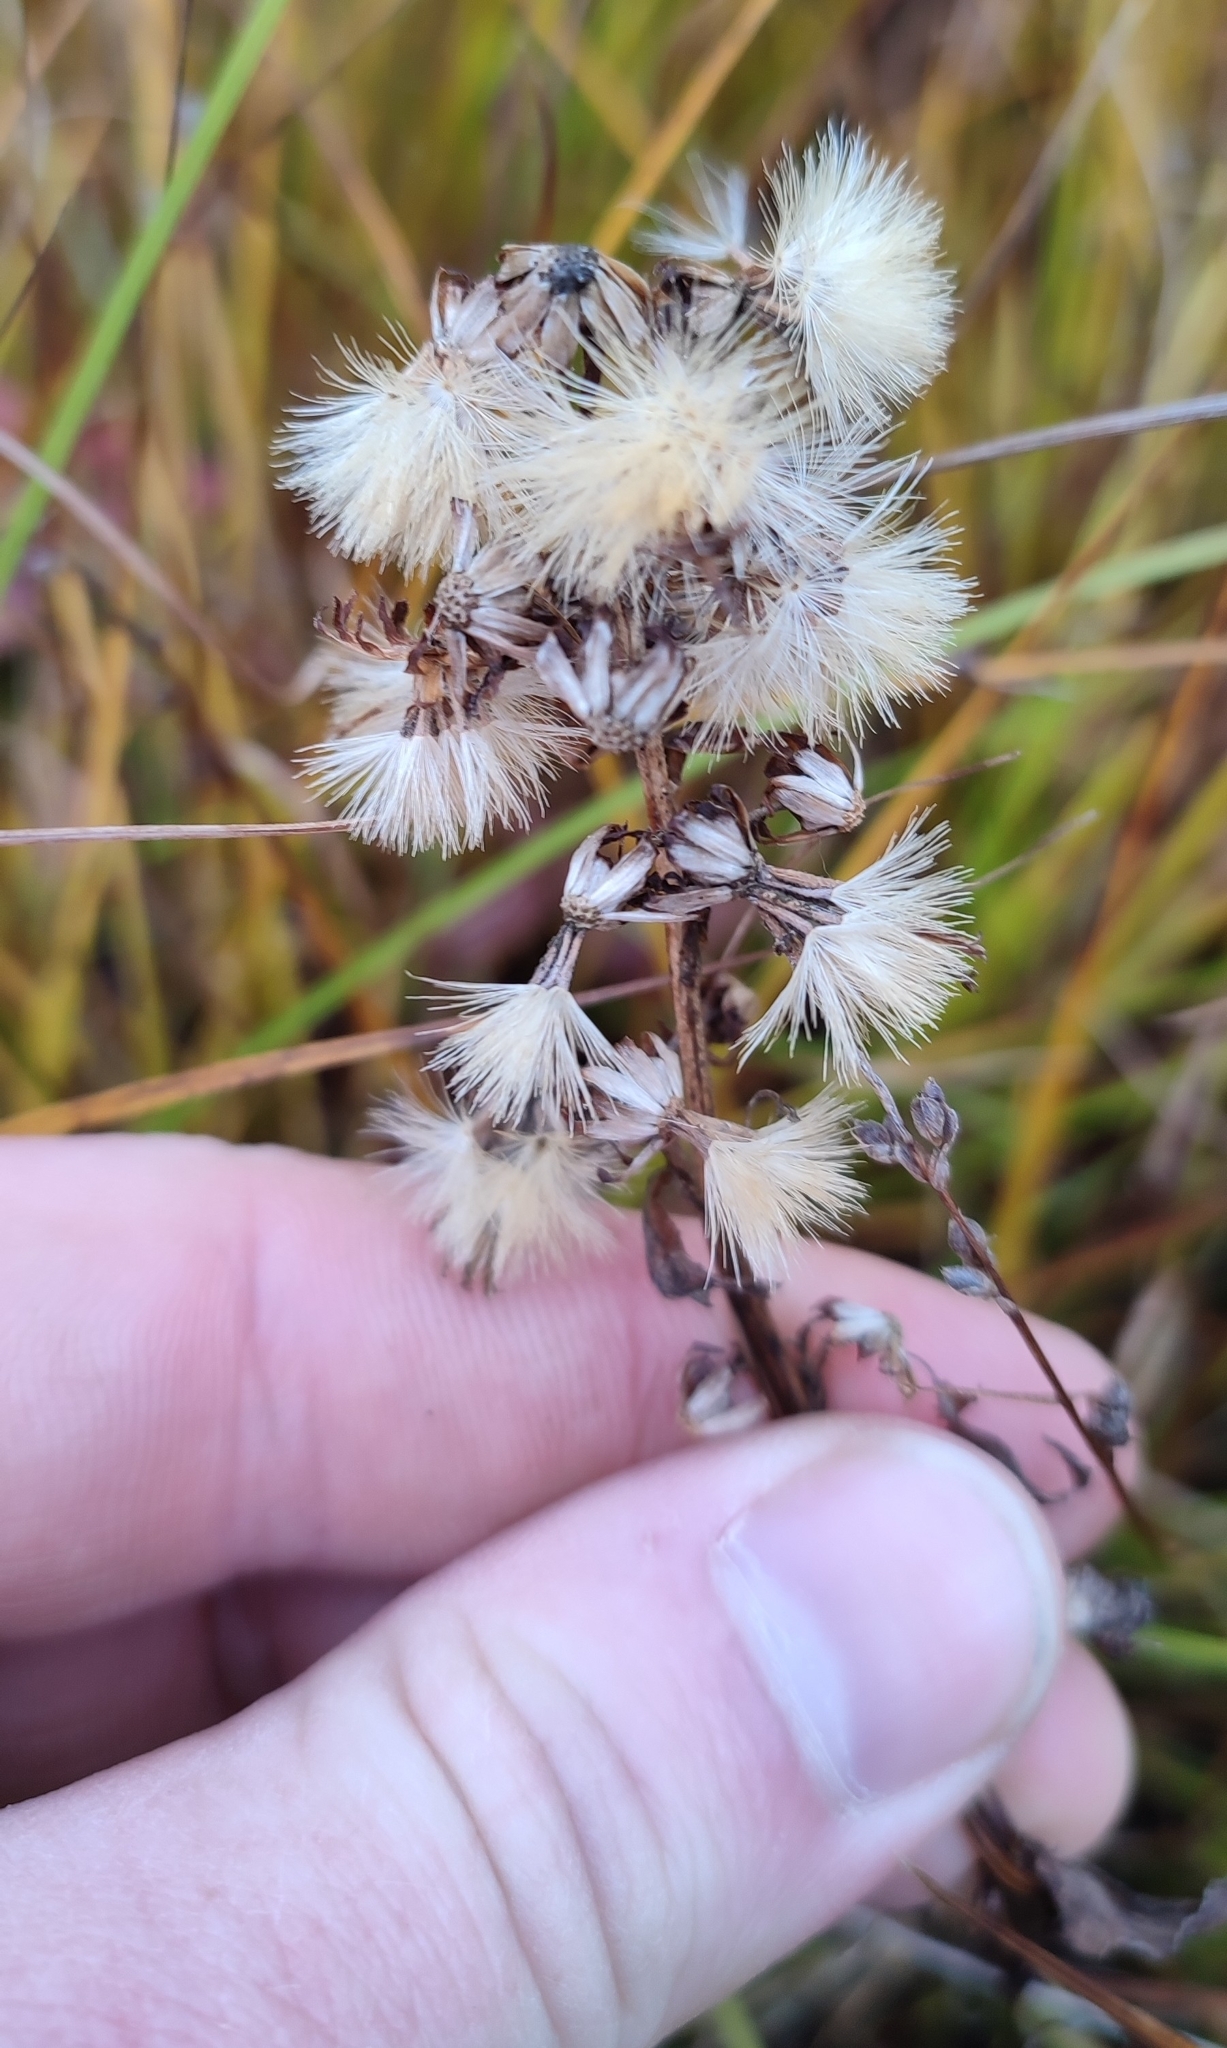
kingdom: Plantae
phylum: Tracheophyta
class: Magnoliopsida
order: Asterales
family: Asteraceae
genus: Solidago
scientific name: Solidago virgaurea
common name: Goldenrod
